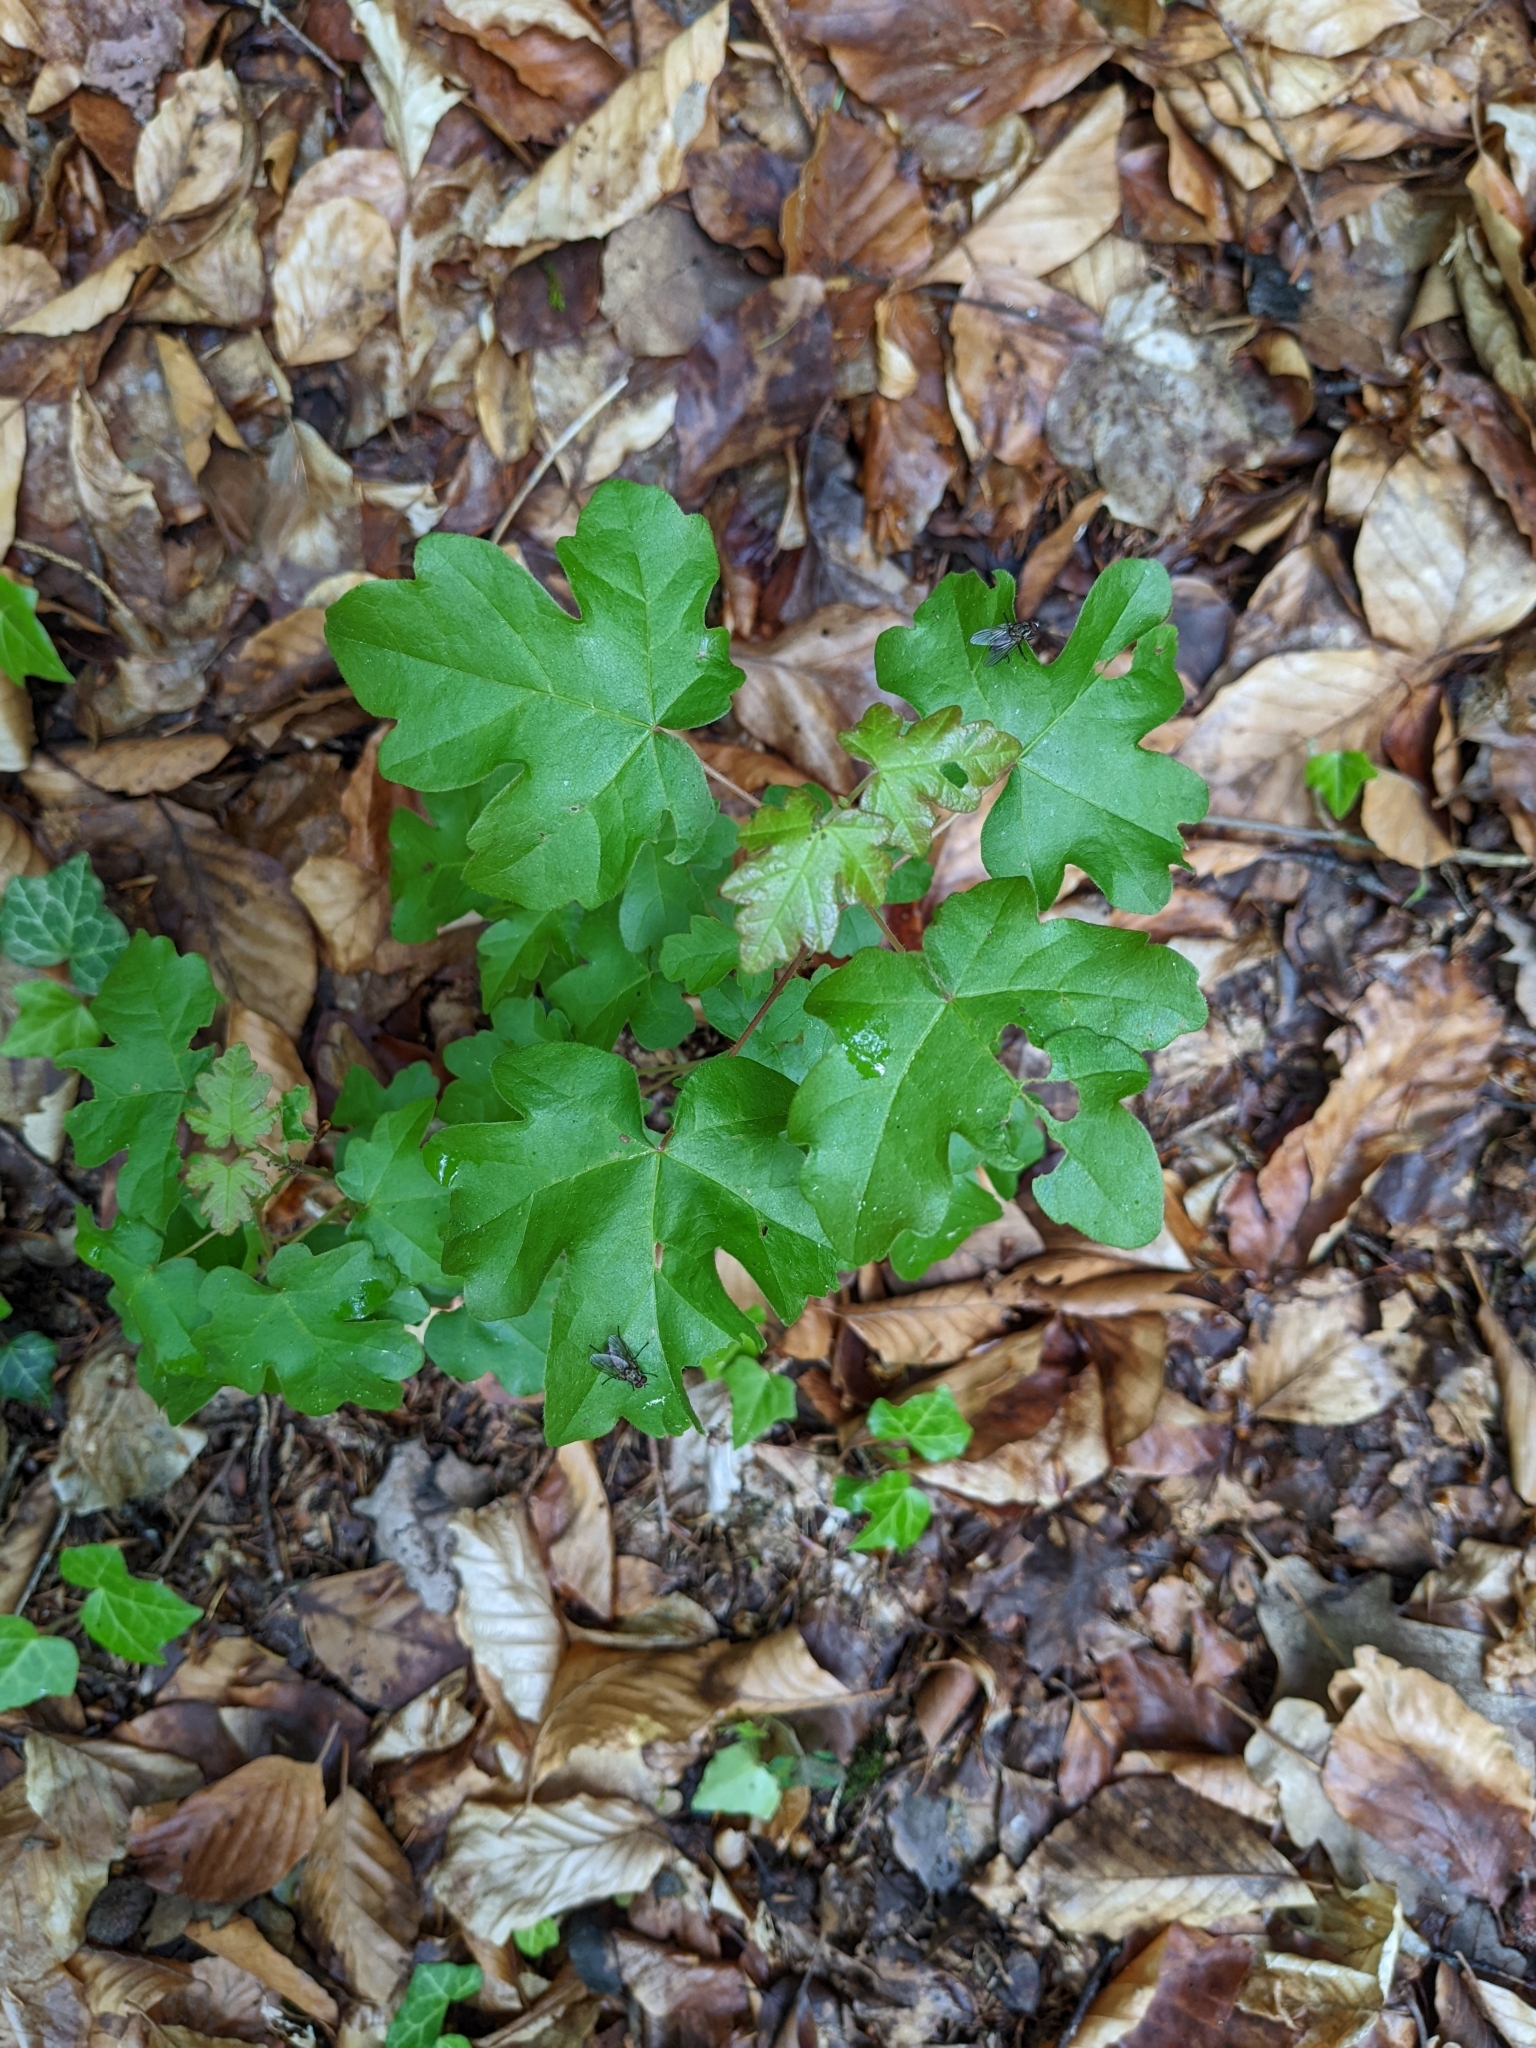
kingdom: Plantae
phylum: Tracheophyta
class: Magnoliopsida
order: Sapindales
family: Sapindaceae
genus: Acer
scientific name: Acer campestre
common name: Field maple
